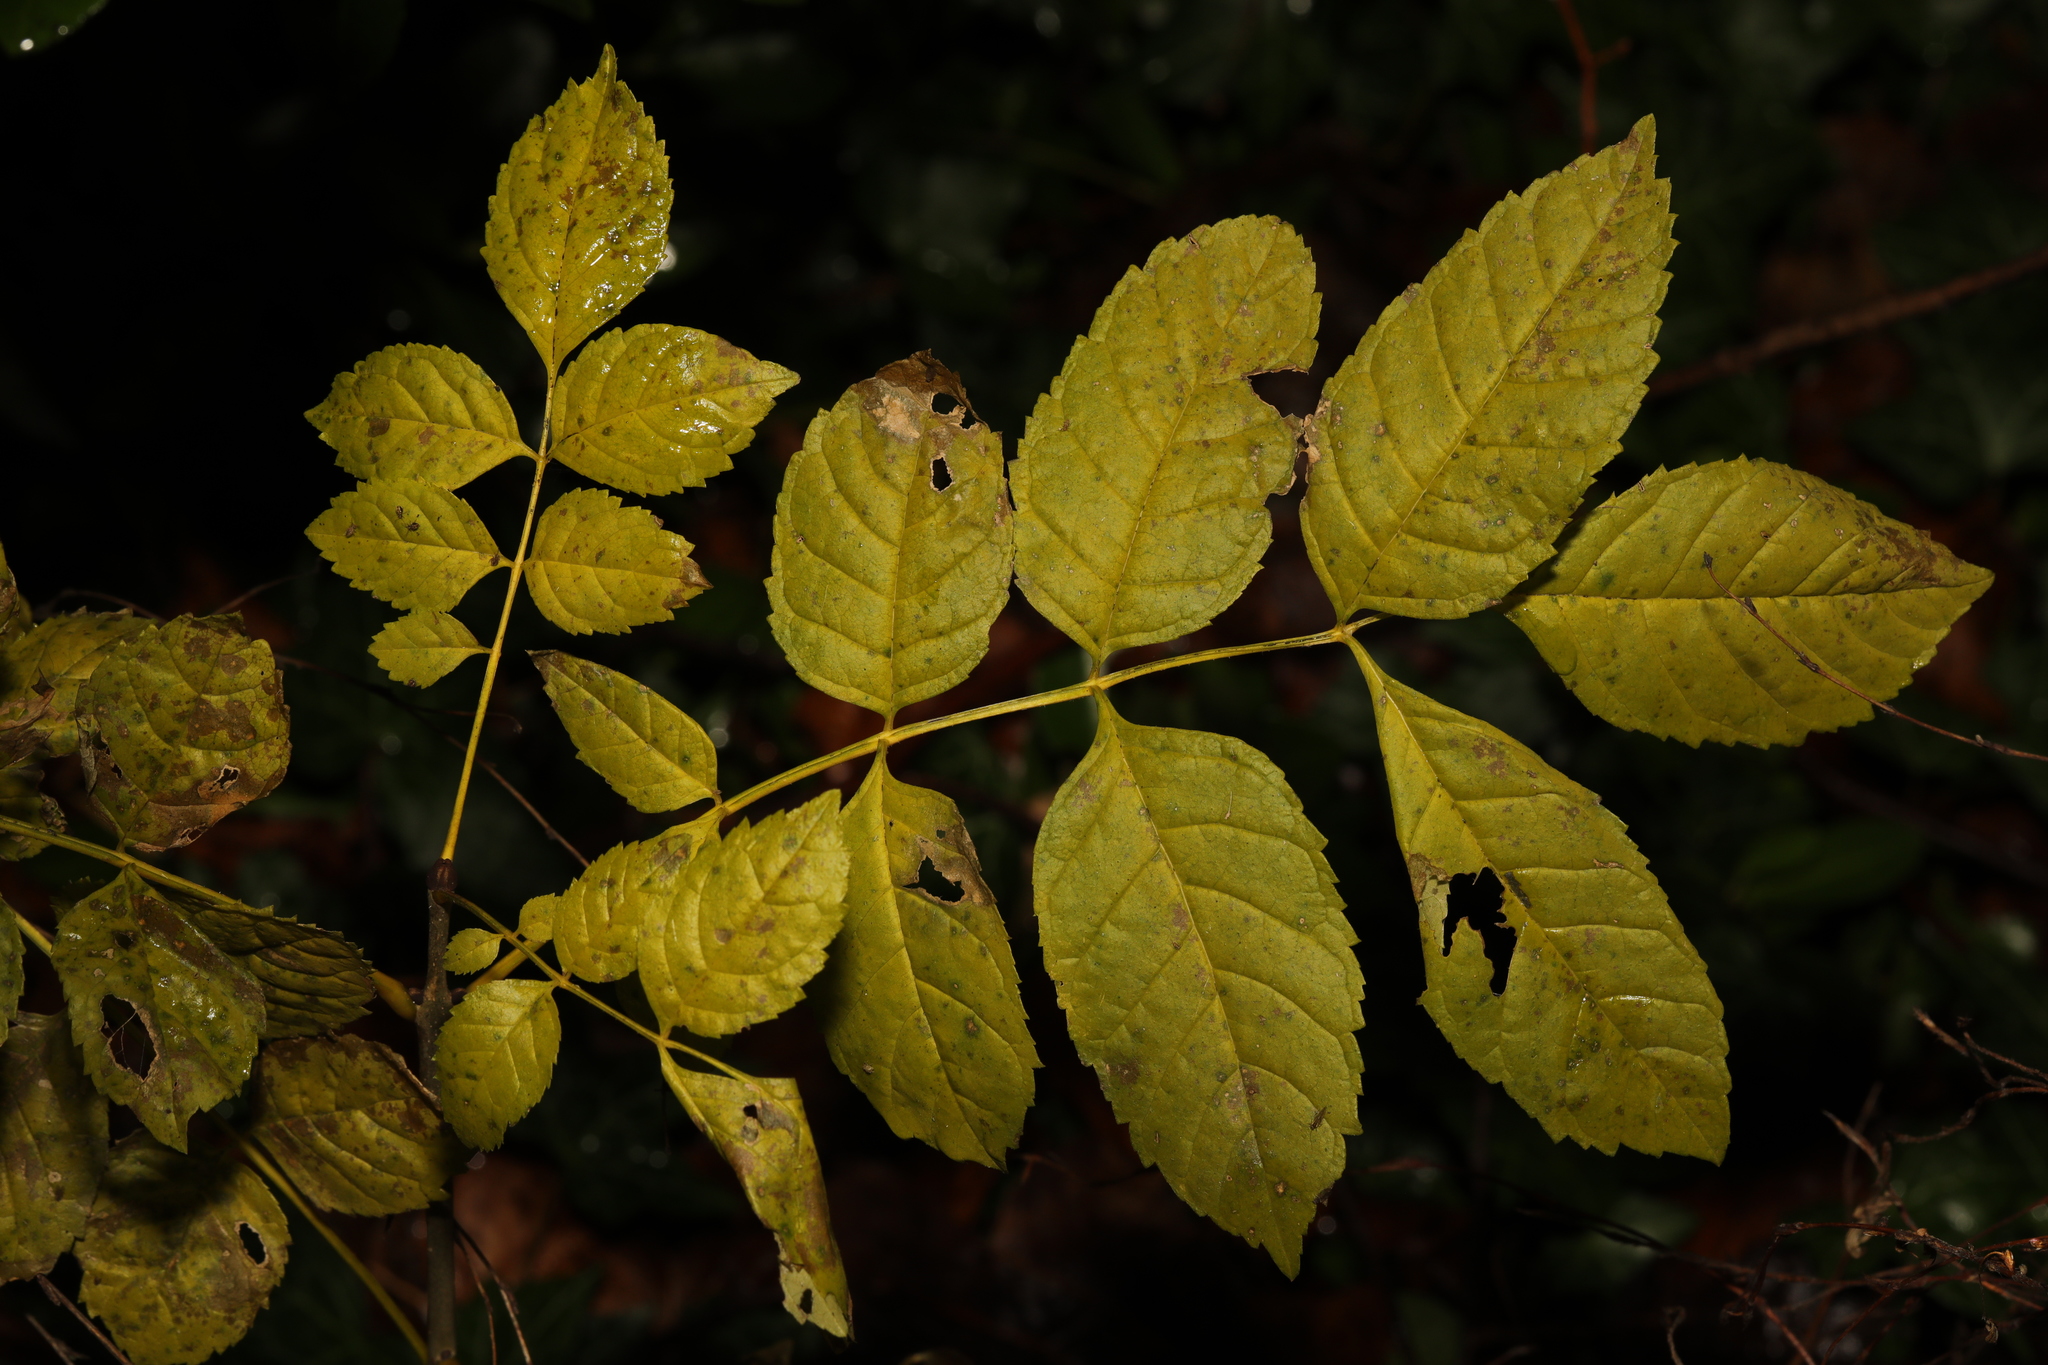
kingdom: Plantae
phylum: Tracheophyta
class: Magnoliopsida
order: Lamiales
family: Oleaceae
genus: Fraxinus
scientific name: Fraxinus excelsior
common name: European ash
